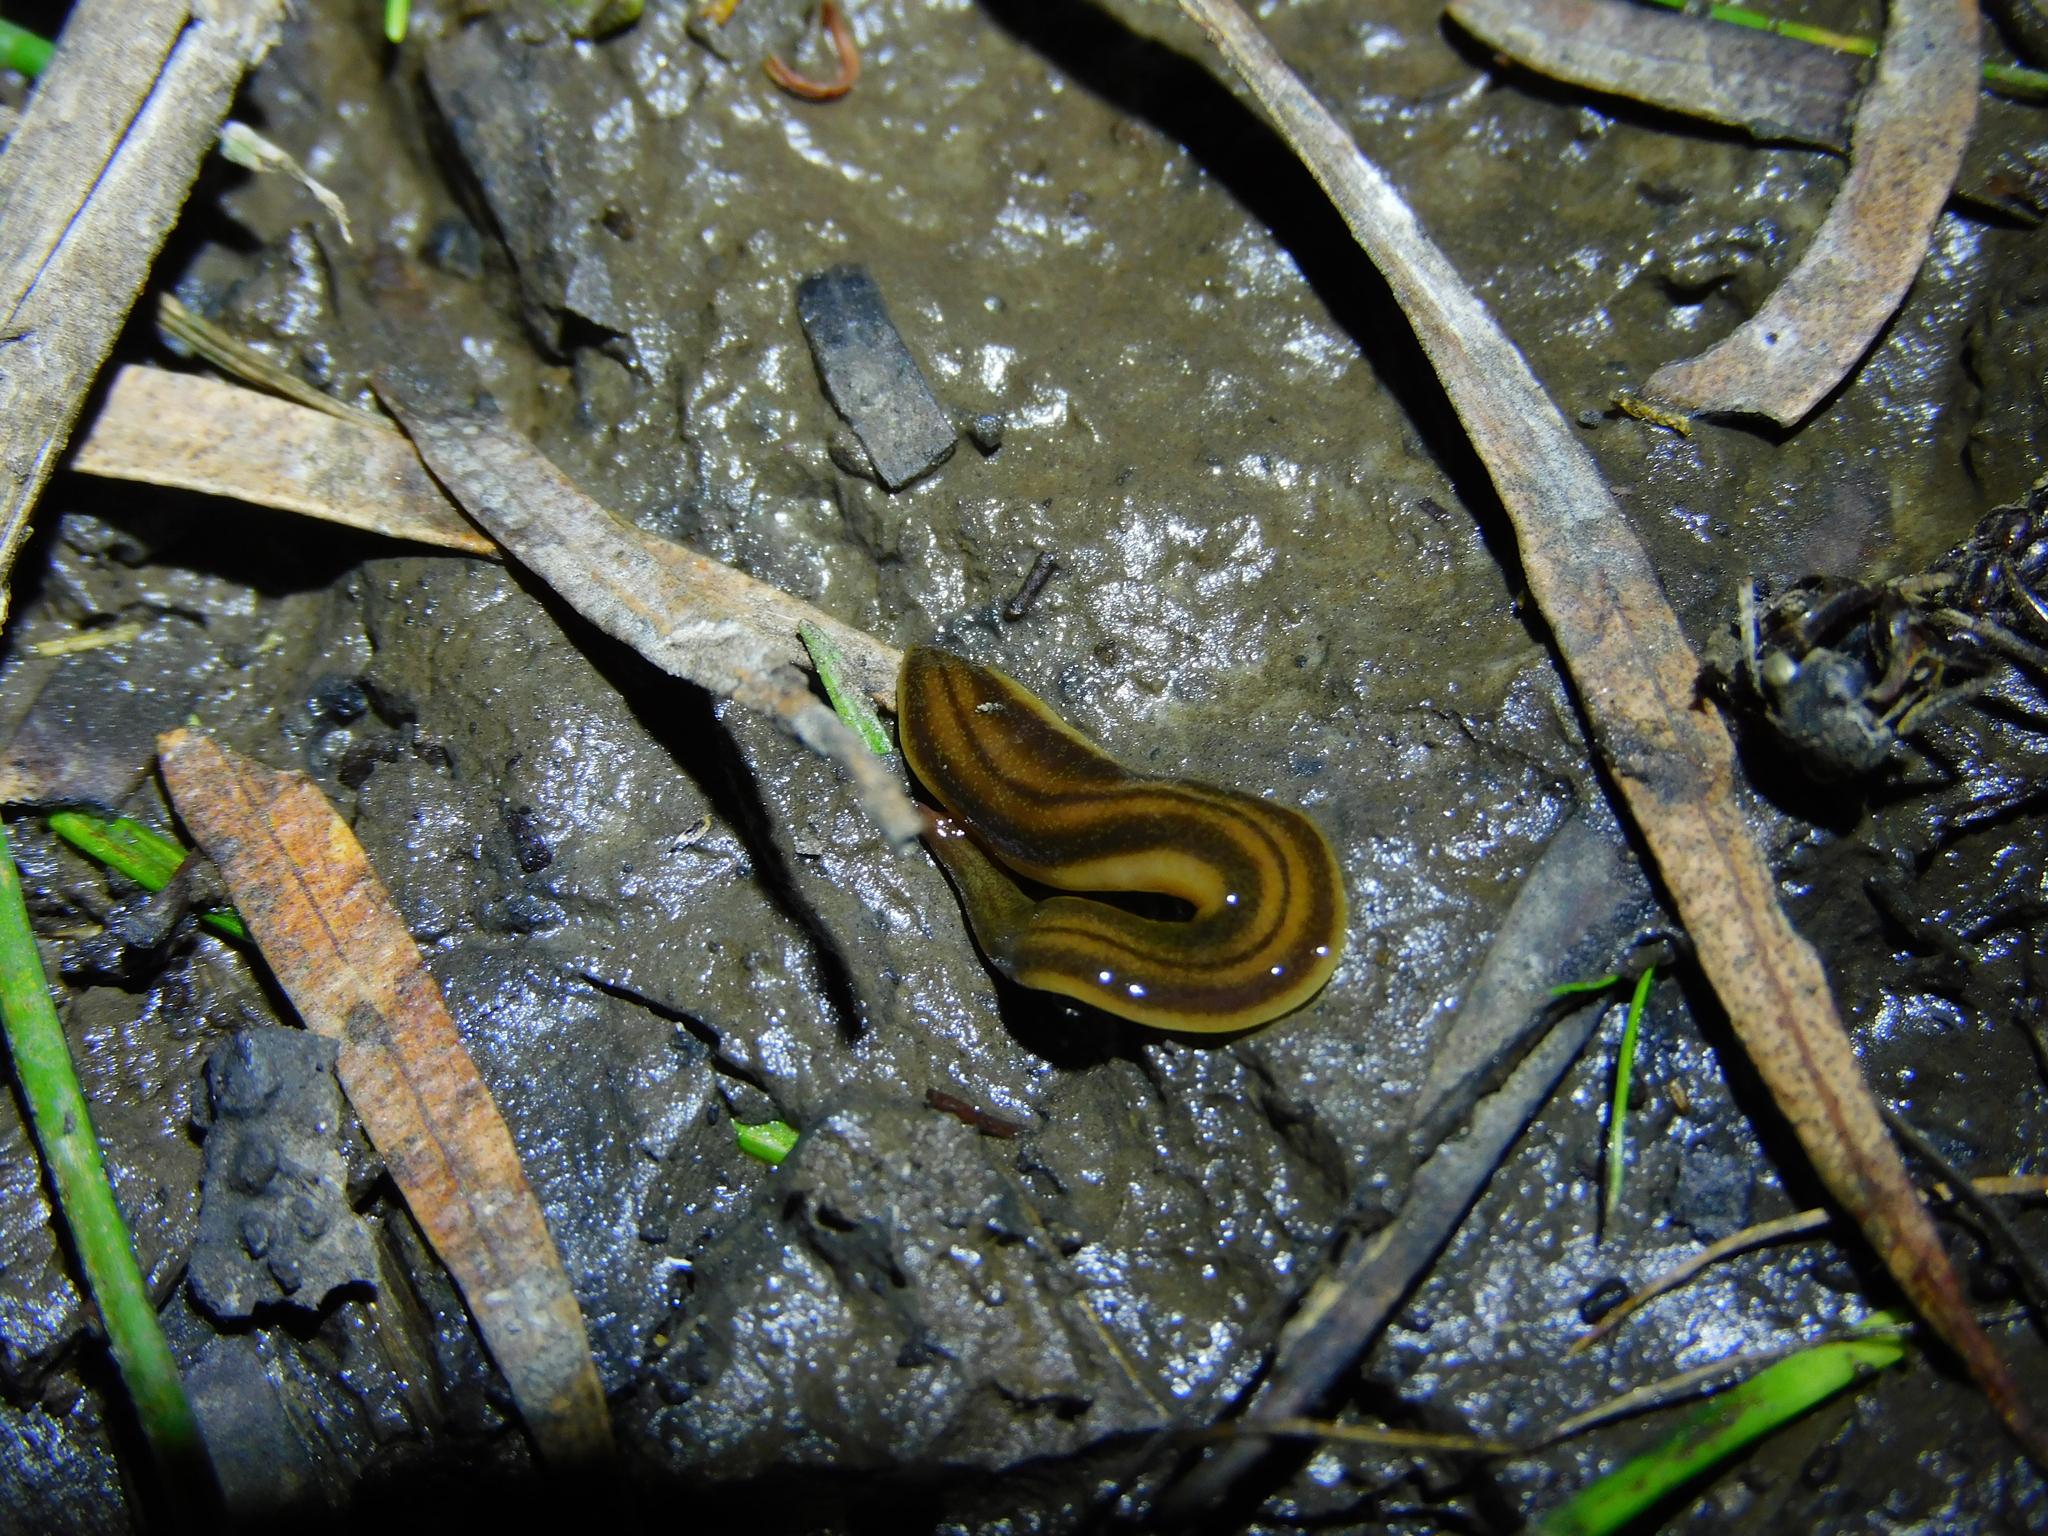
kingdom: Animalia
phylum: Platyhelminthes
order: Tricladida
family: Geoplanidae
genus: Tasmanoplana
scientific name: Tasmanoplana tasmaniana
